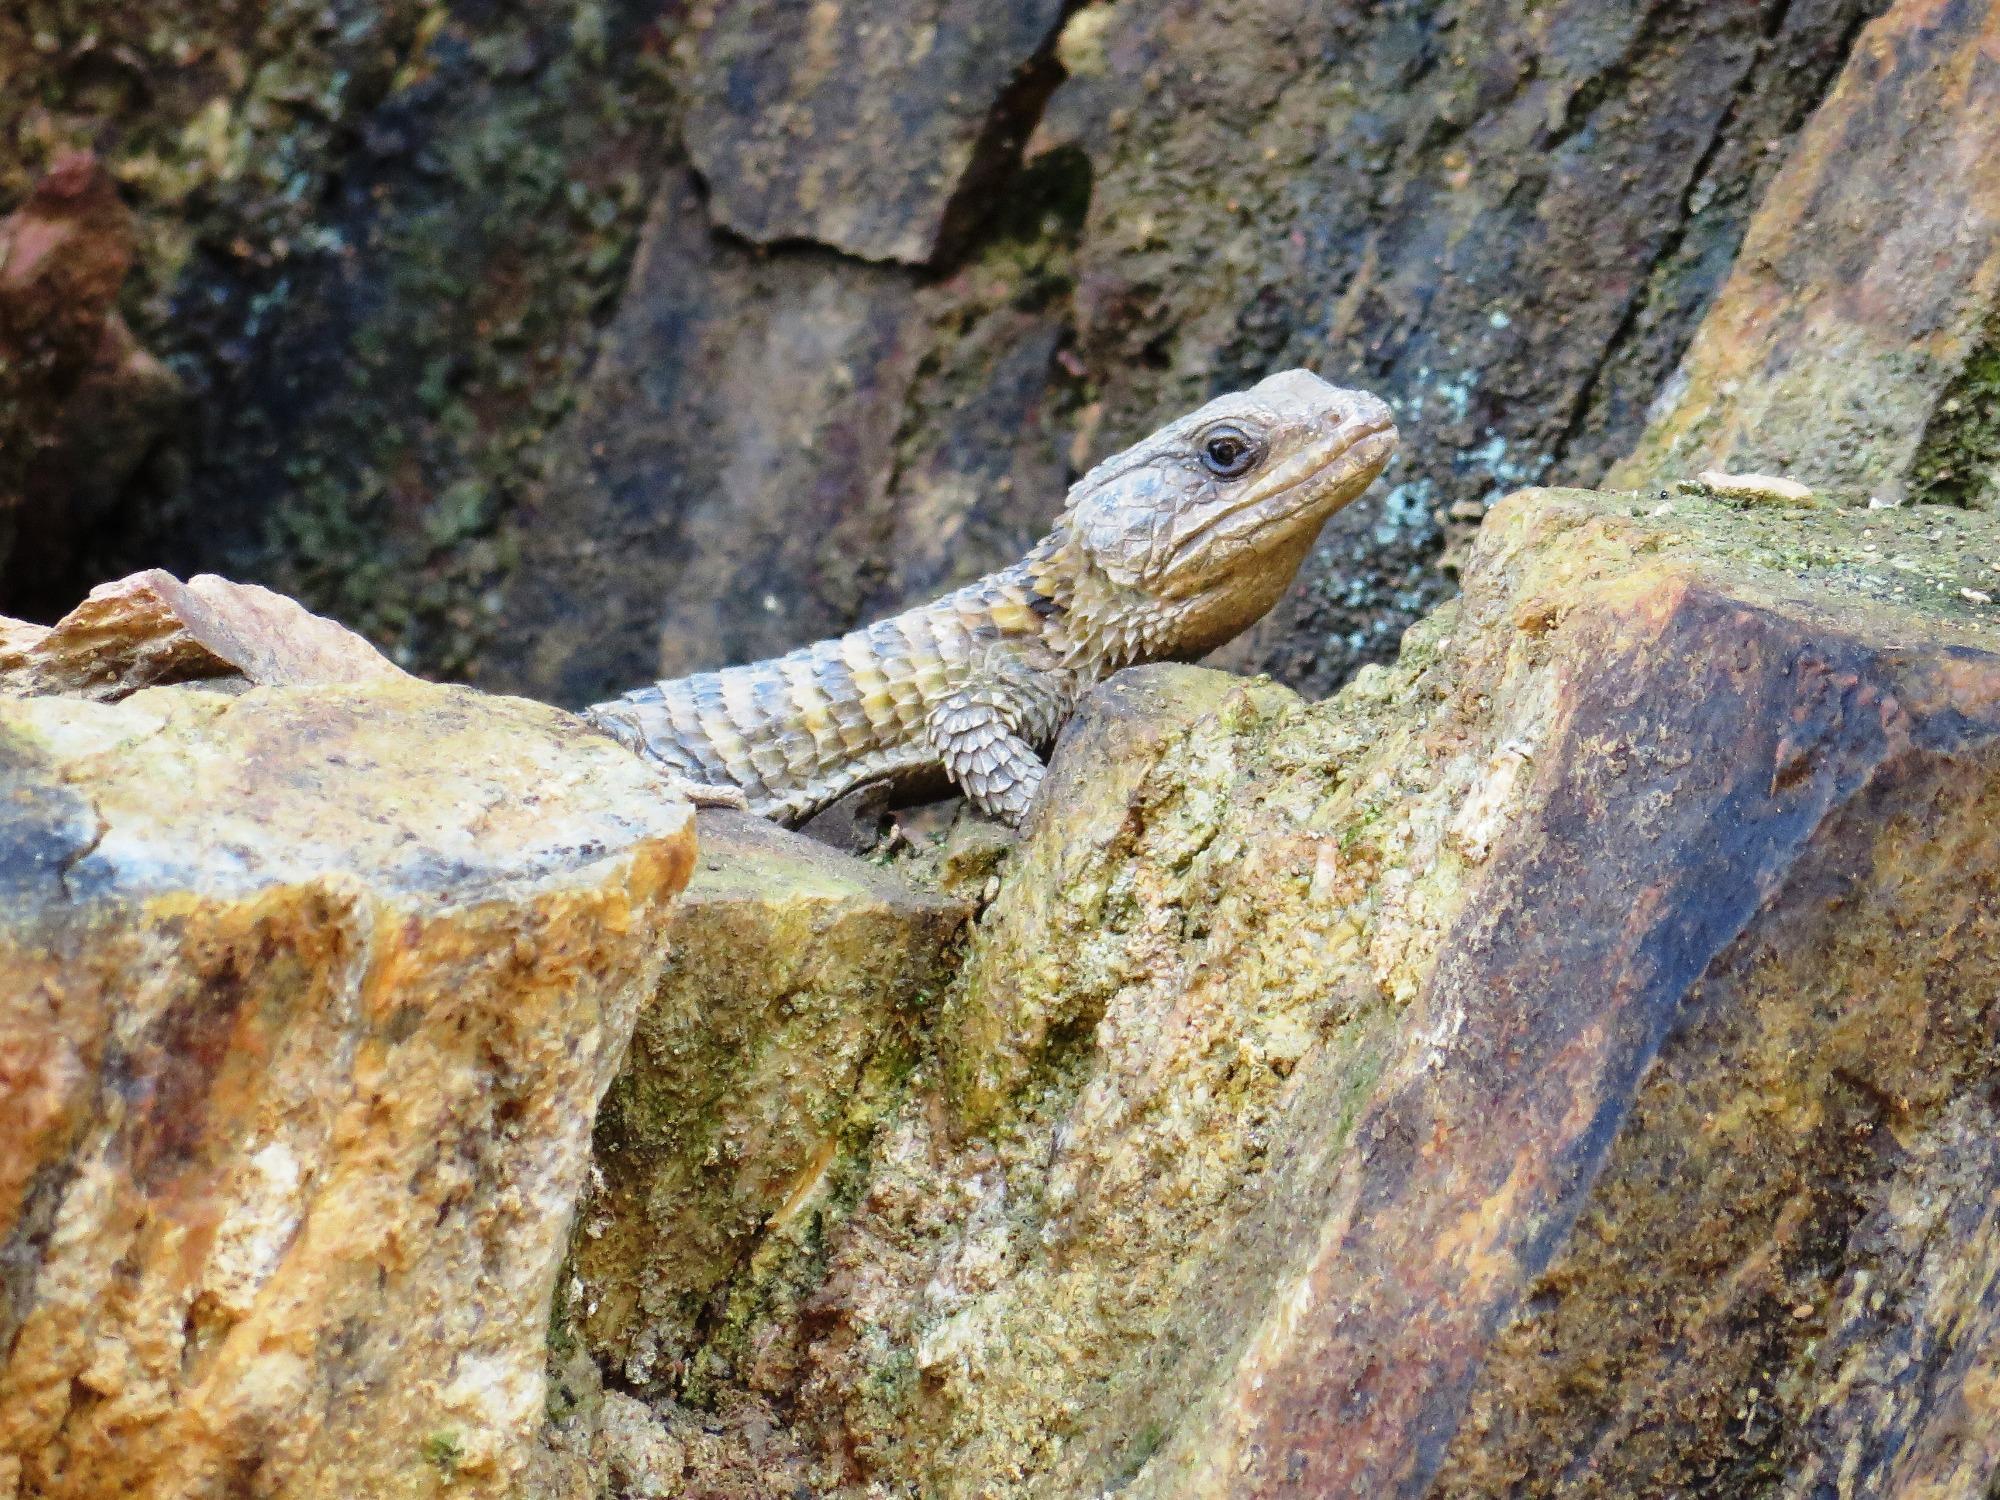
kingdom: Animalia
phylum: Chordata
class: Squamata
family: Cordylidae
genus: Cordylus
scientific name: Cordylus cordylus
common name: Cape girdled lizard
